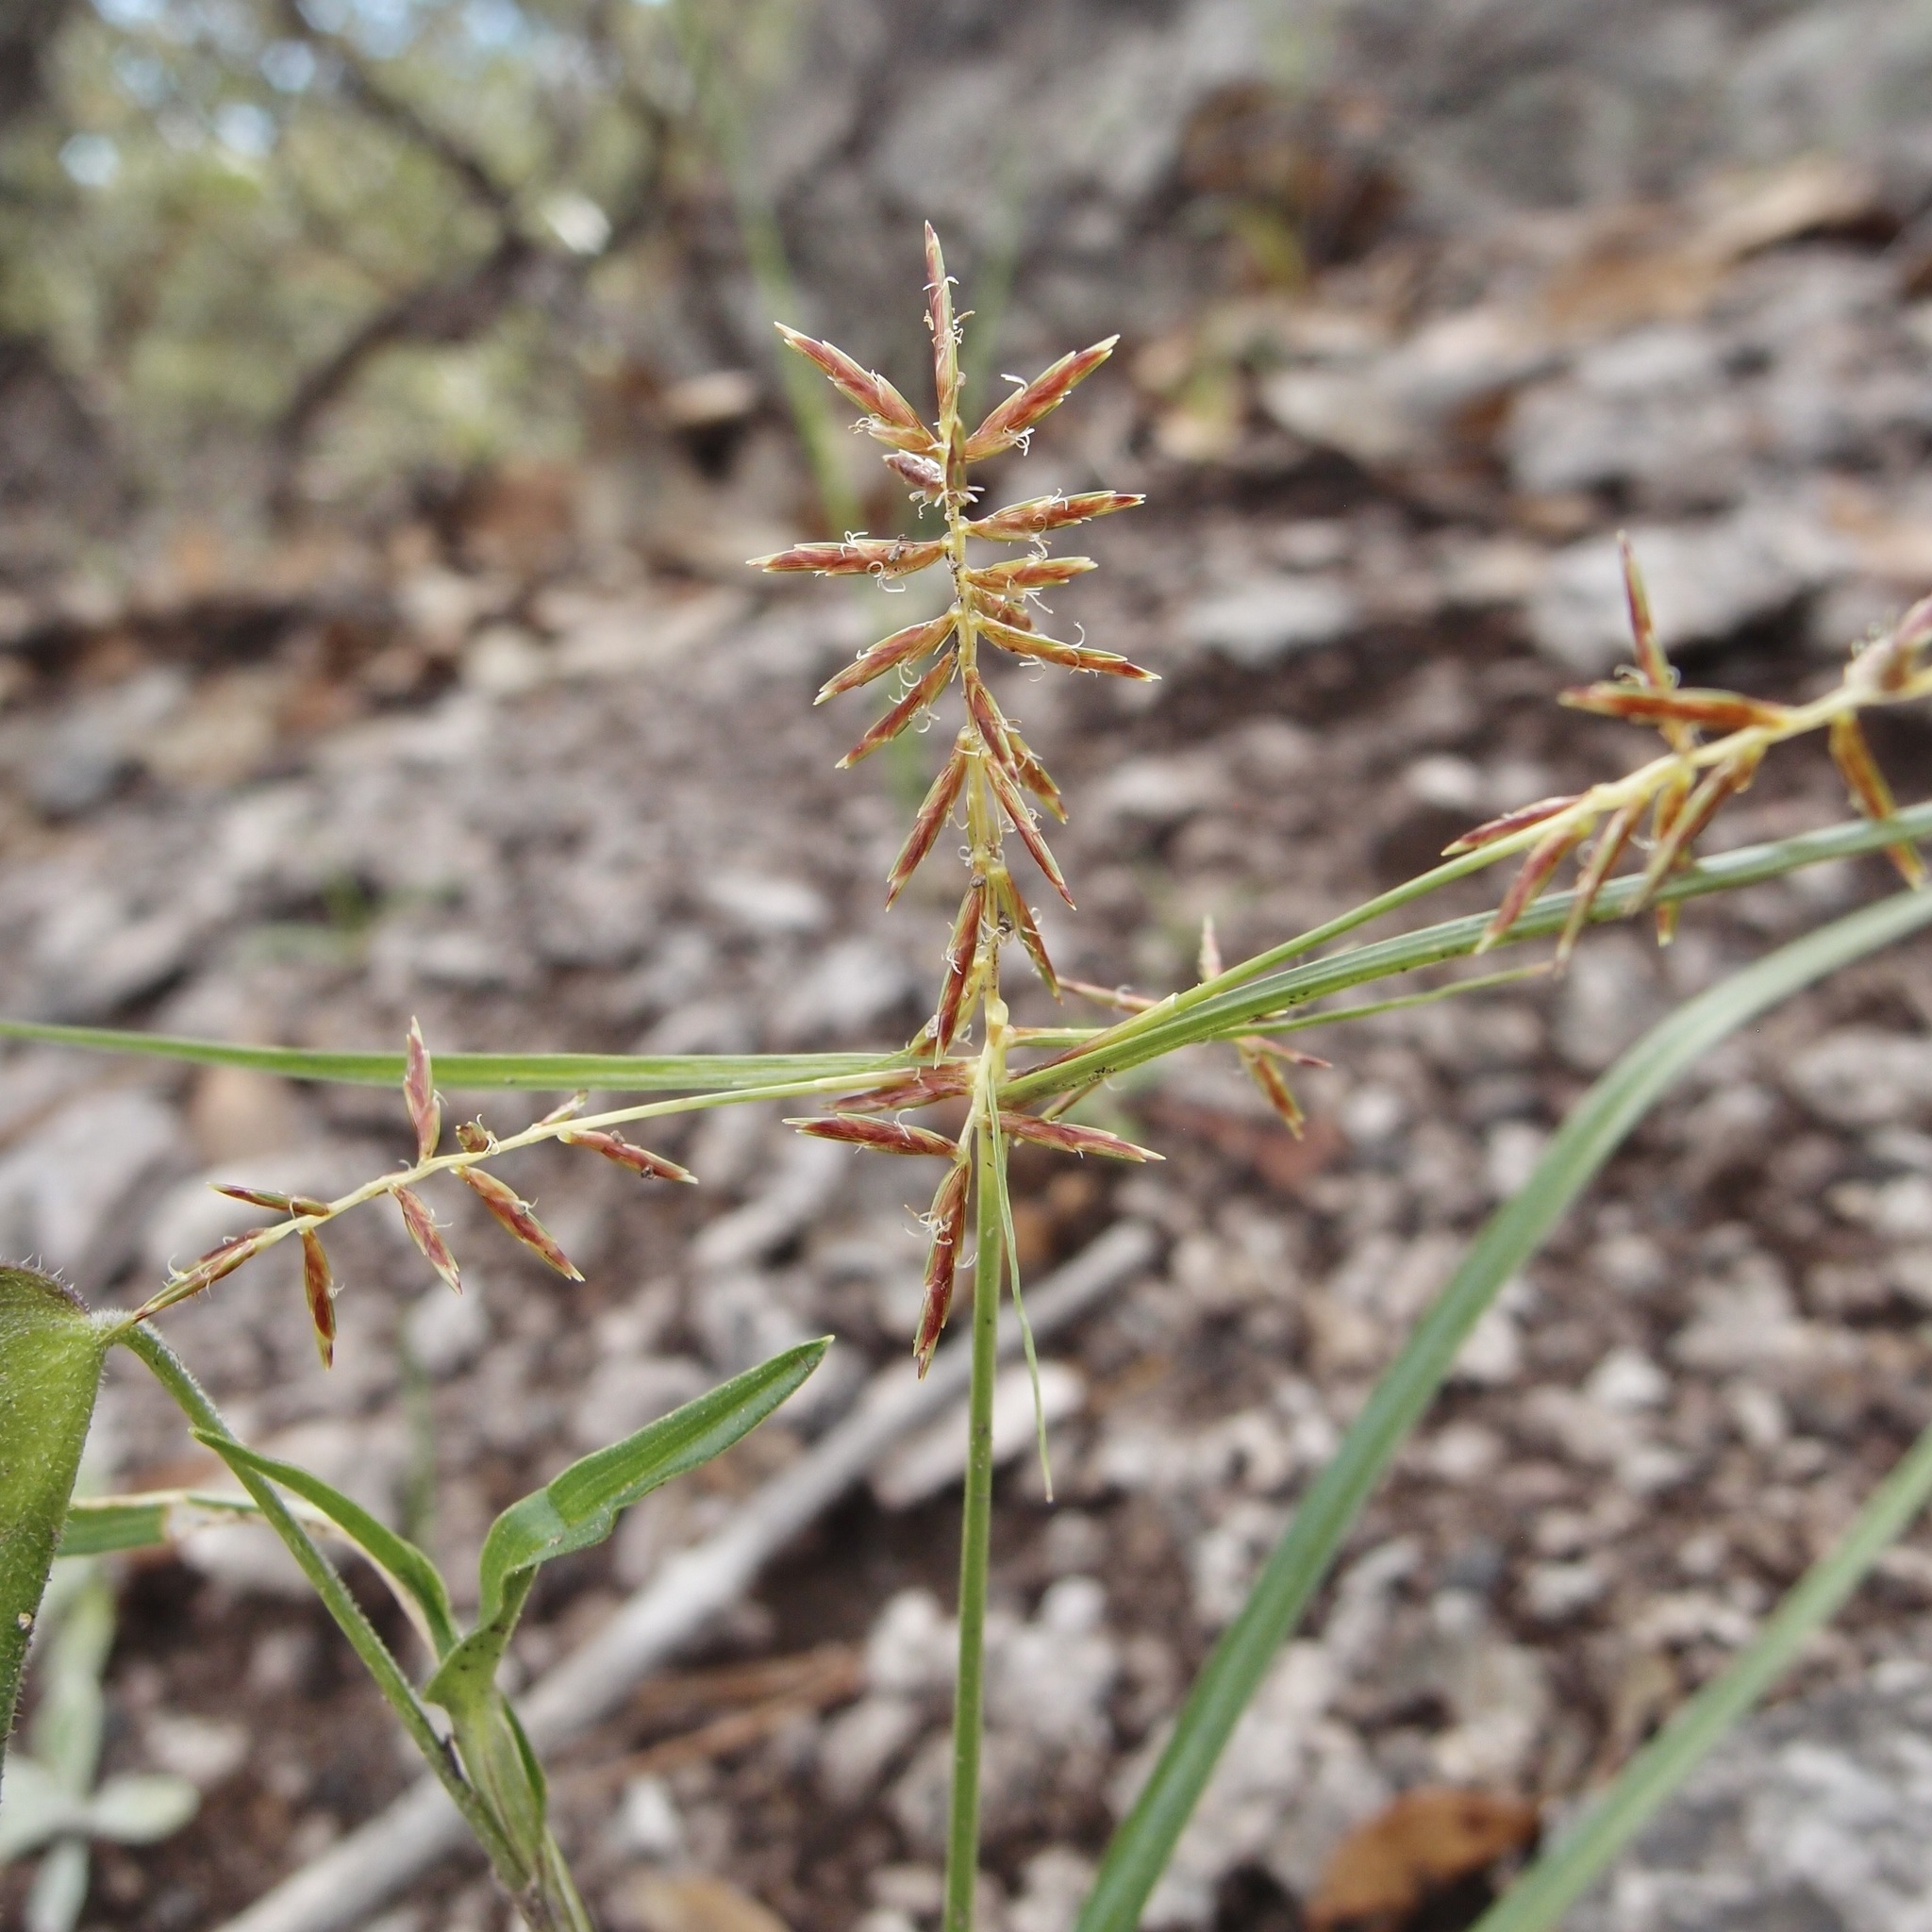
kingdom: Plantae
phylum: Tracheophyta
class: Liliopsida
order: Poales
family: Cyperaceae
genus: Cyperus
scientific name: Cyperus hypopitys
